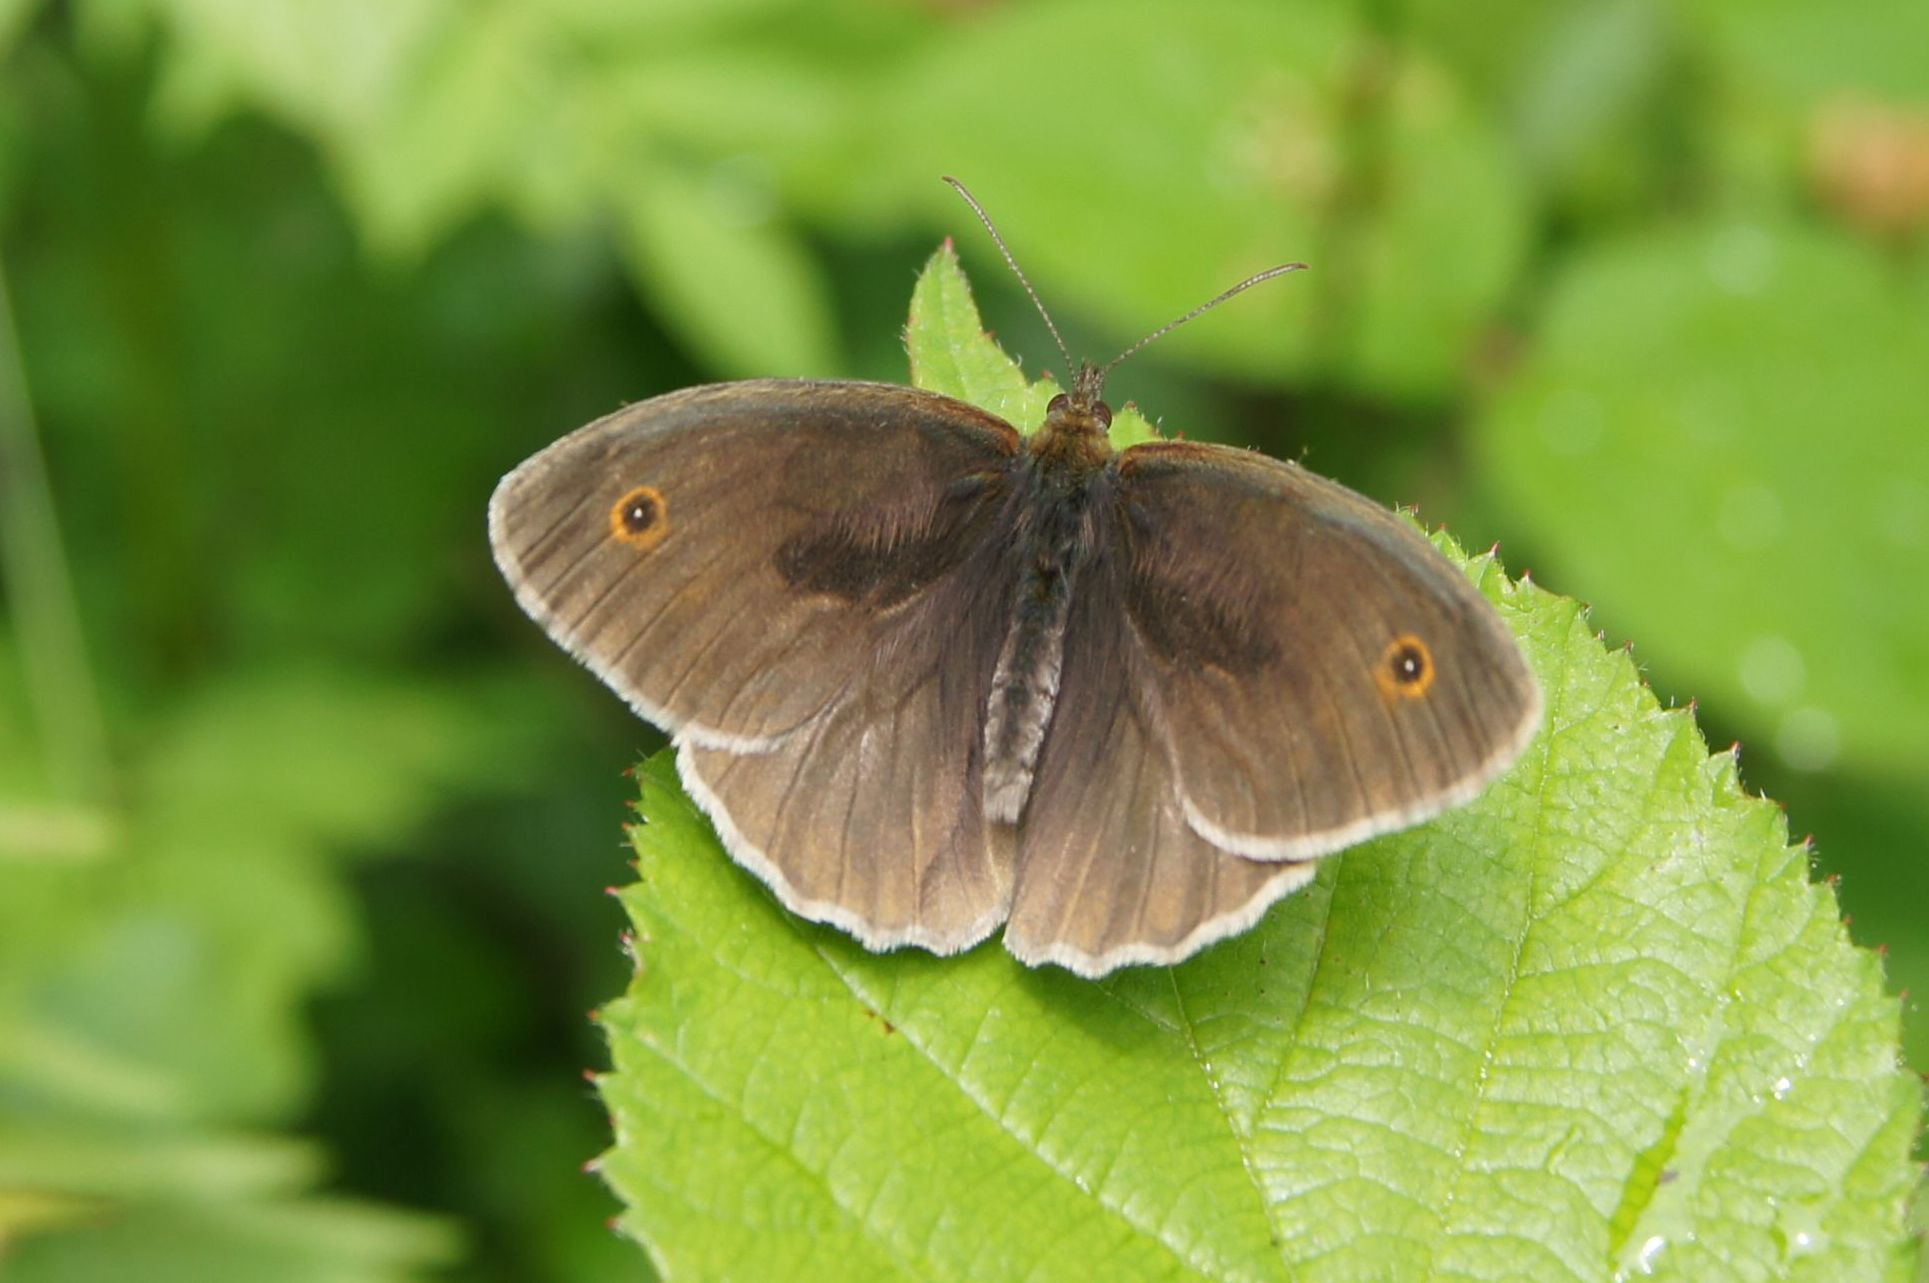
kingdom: Animalia
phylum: Arthropoda
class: Insecta
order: Lepidoptera
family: Nymphalidae
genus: Maniola
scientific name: Maniola jurtina
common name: Meadow brown
